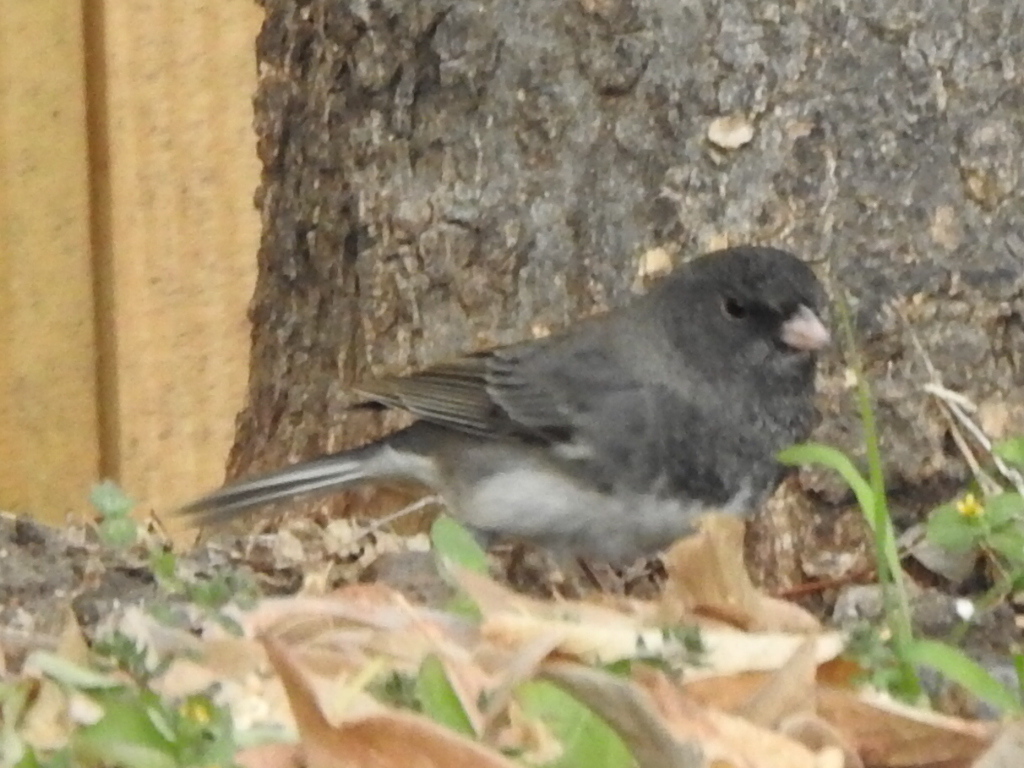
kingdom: Animalia
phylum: Chordata
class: Aves
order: Passeriformes
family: Passerellidae
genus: Junco
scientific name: Junco hyemalis
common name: Dark-eyed junco
